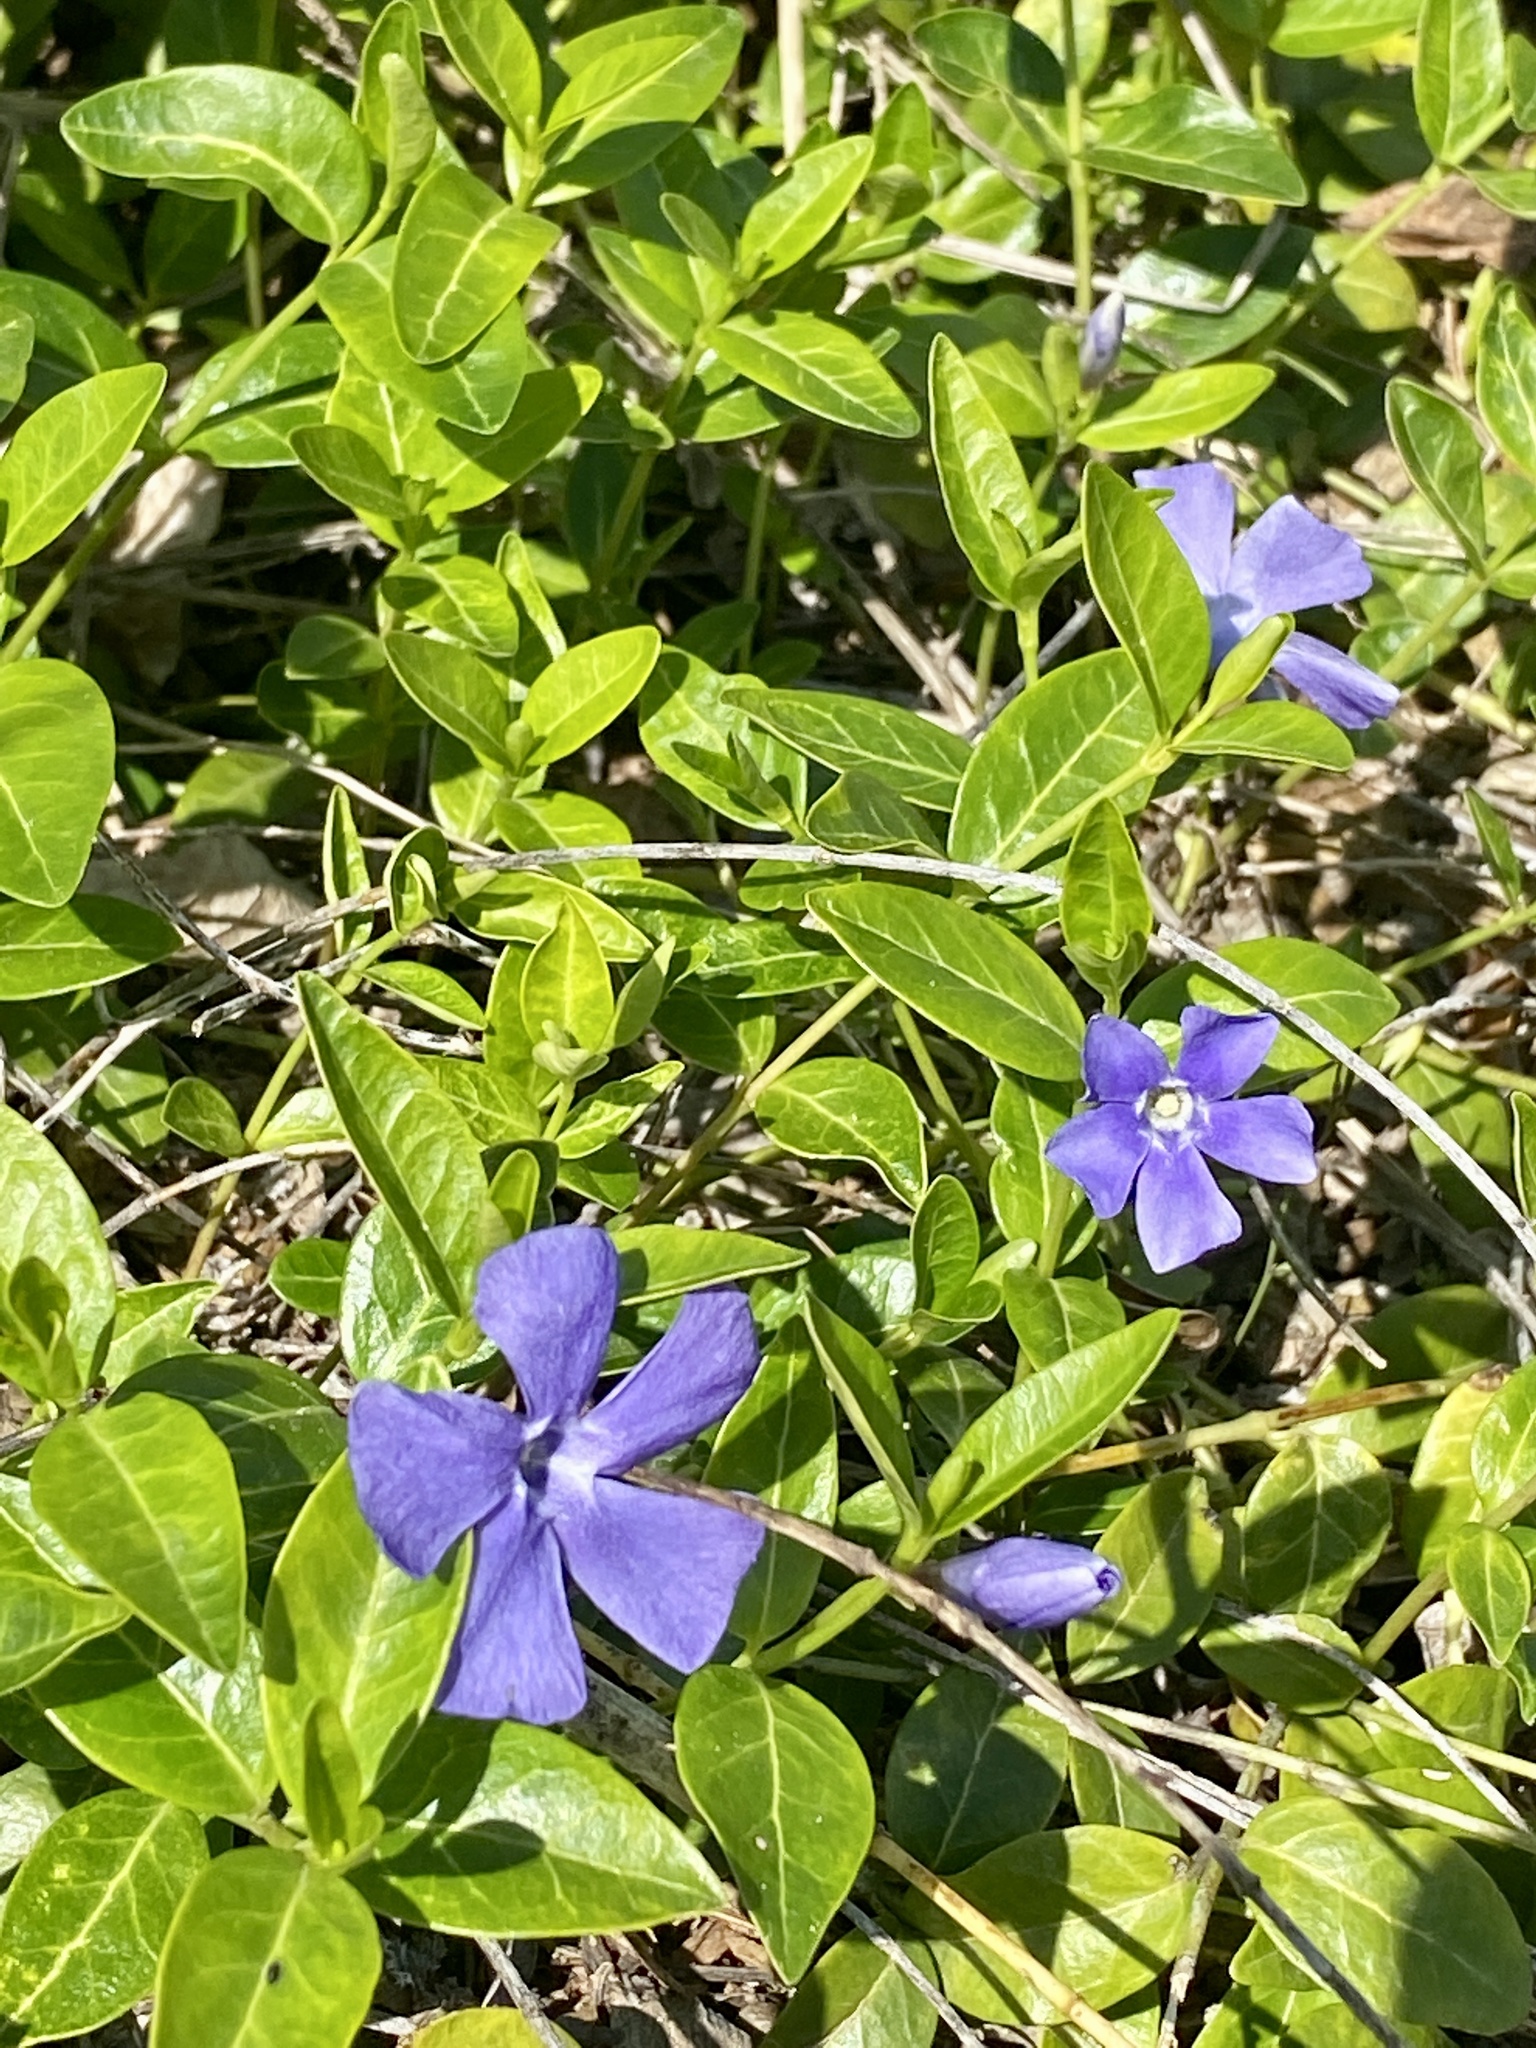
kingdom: Plantae
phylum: Tracheophyta
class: Magnoliopsida
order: Gentianales
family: Apocynaceae
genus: Vinca
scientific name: Vinca minor
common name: Lesser periwinkle
